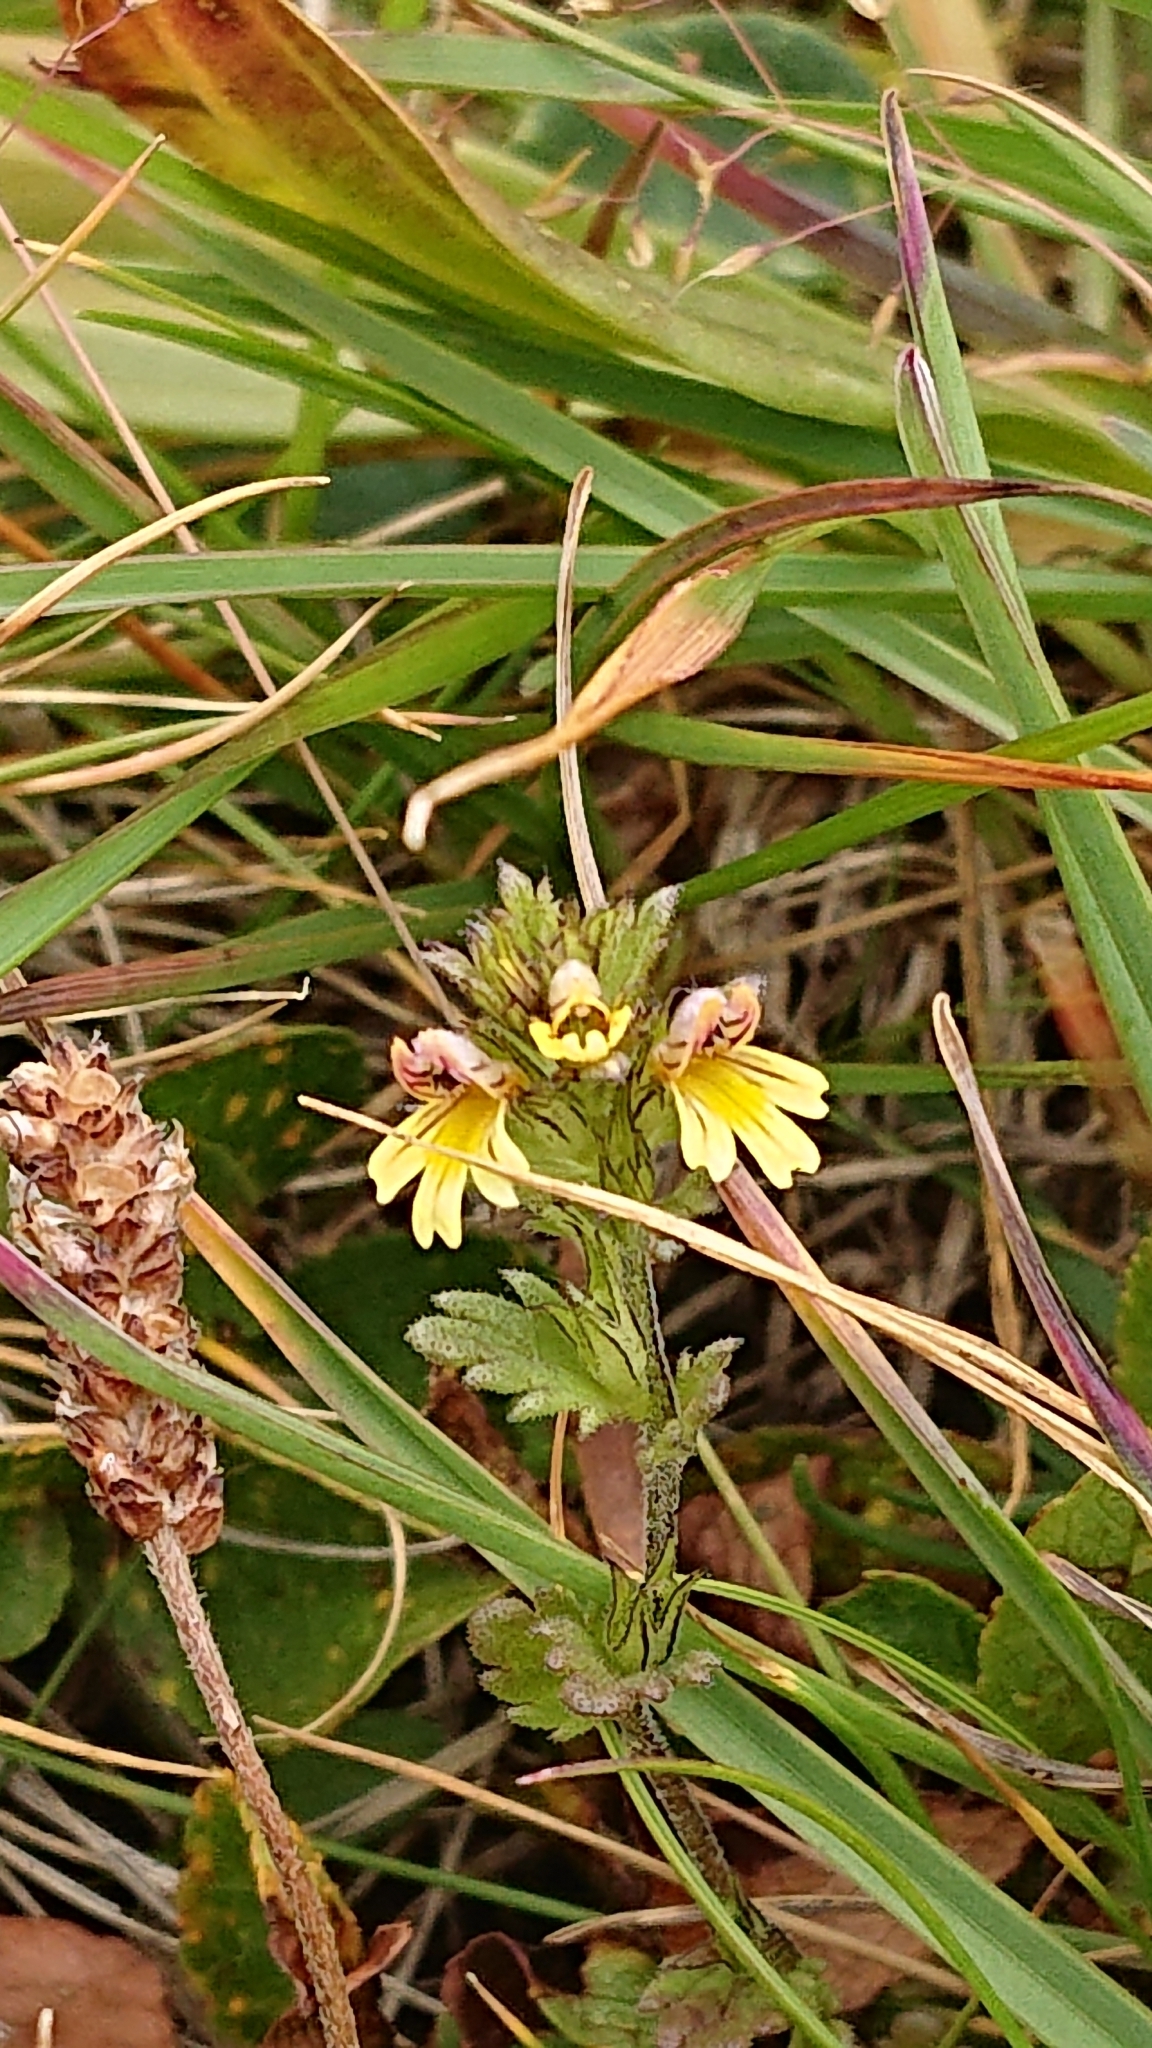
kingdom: Plantae
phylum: Tracheophyta
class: Magnoliopsida
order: Lamiales
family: Orobanchaceae
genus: Euphrasia
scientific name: Euphrasia minima
